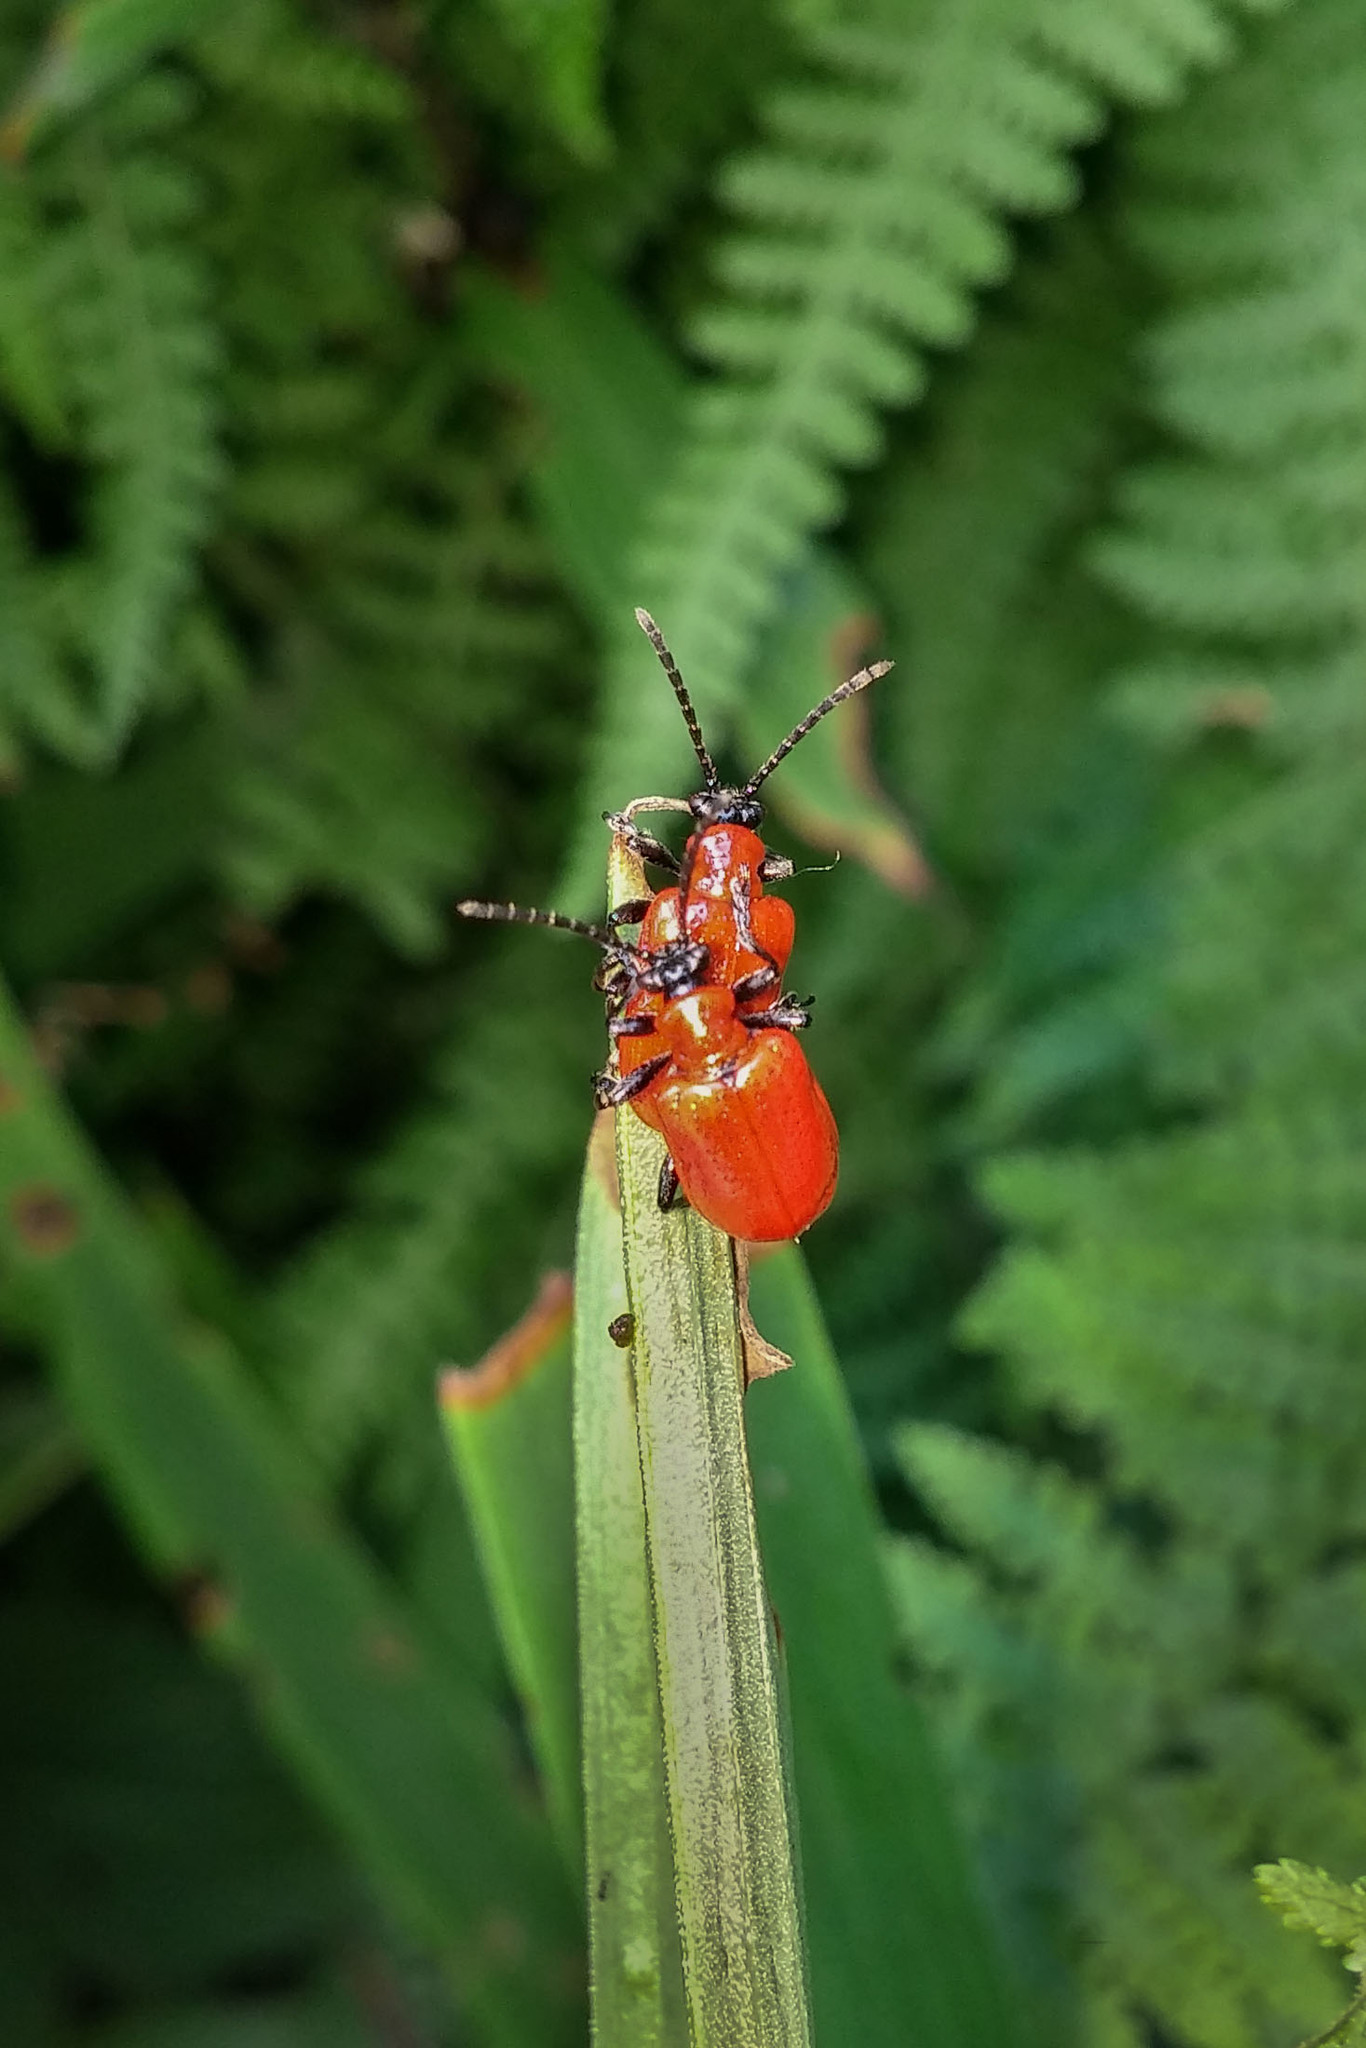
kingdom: Animalia
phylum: Arthropoda
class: Insecta
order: Coleoptera
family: Chrysomelidae
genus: Lilioceris
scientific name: Lilioceris lilii
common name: Lily beetle
